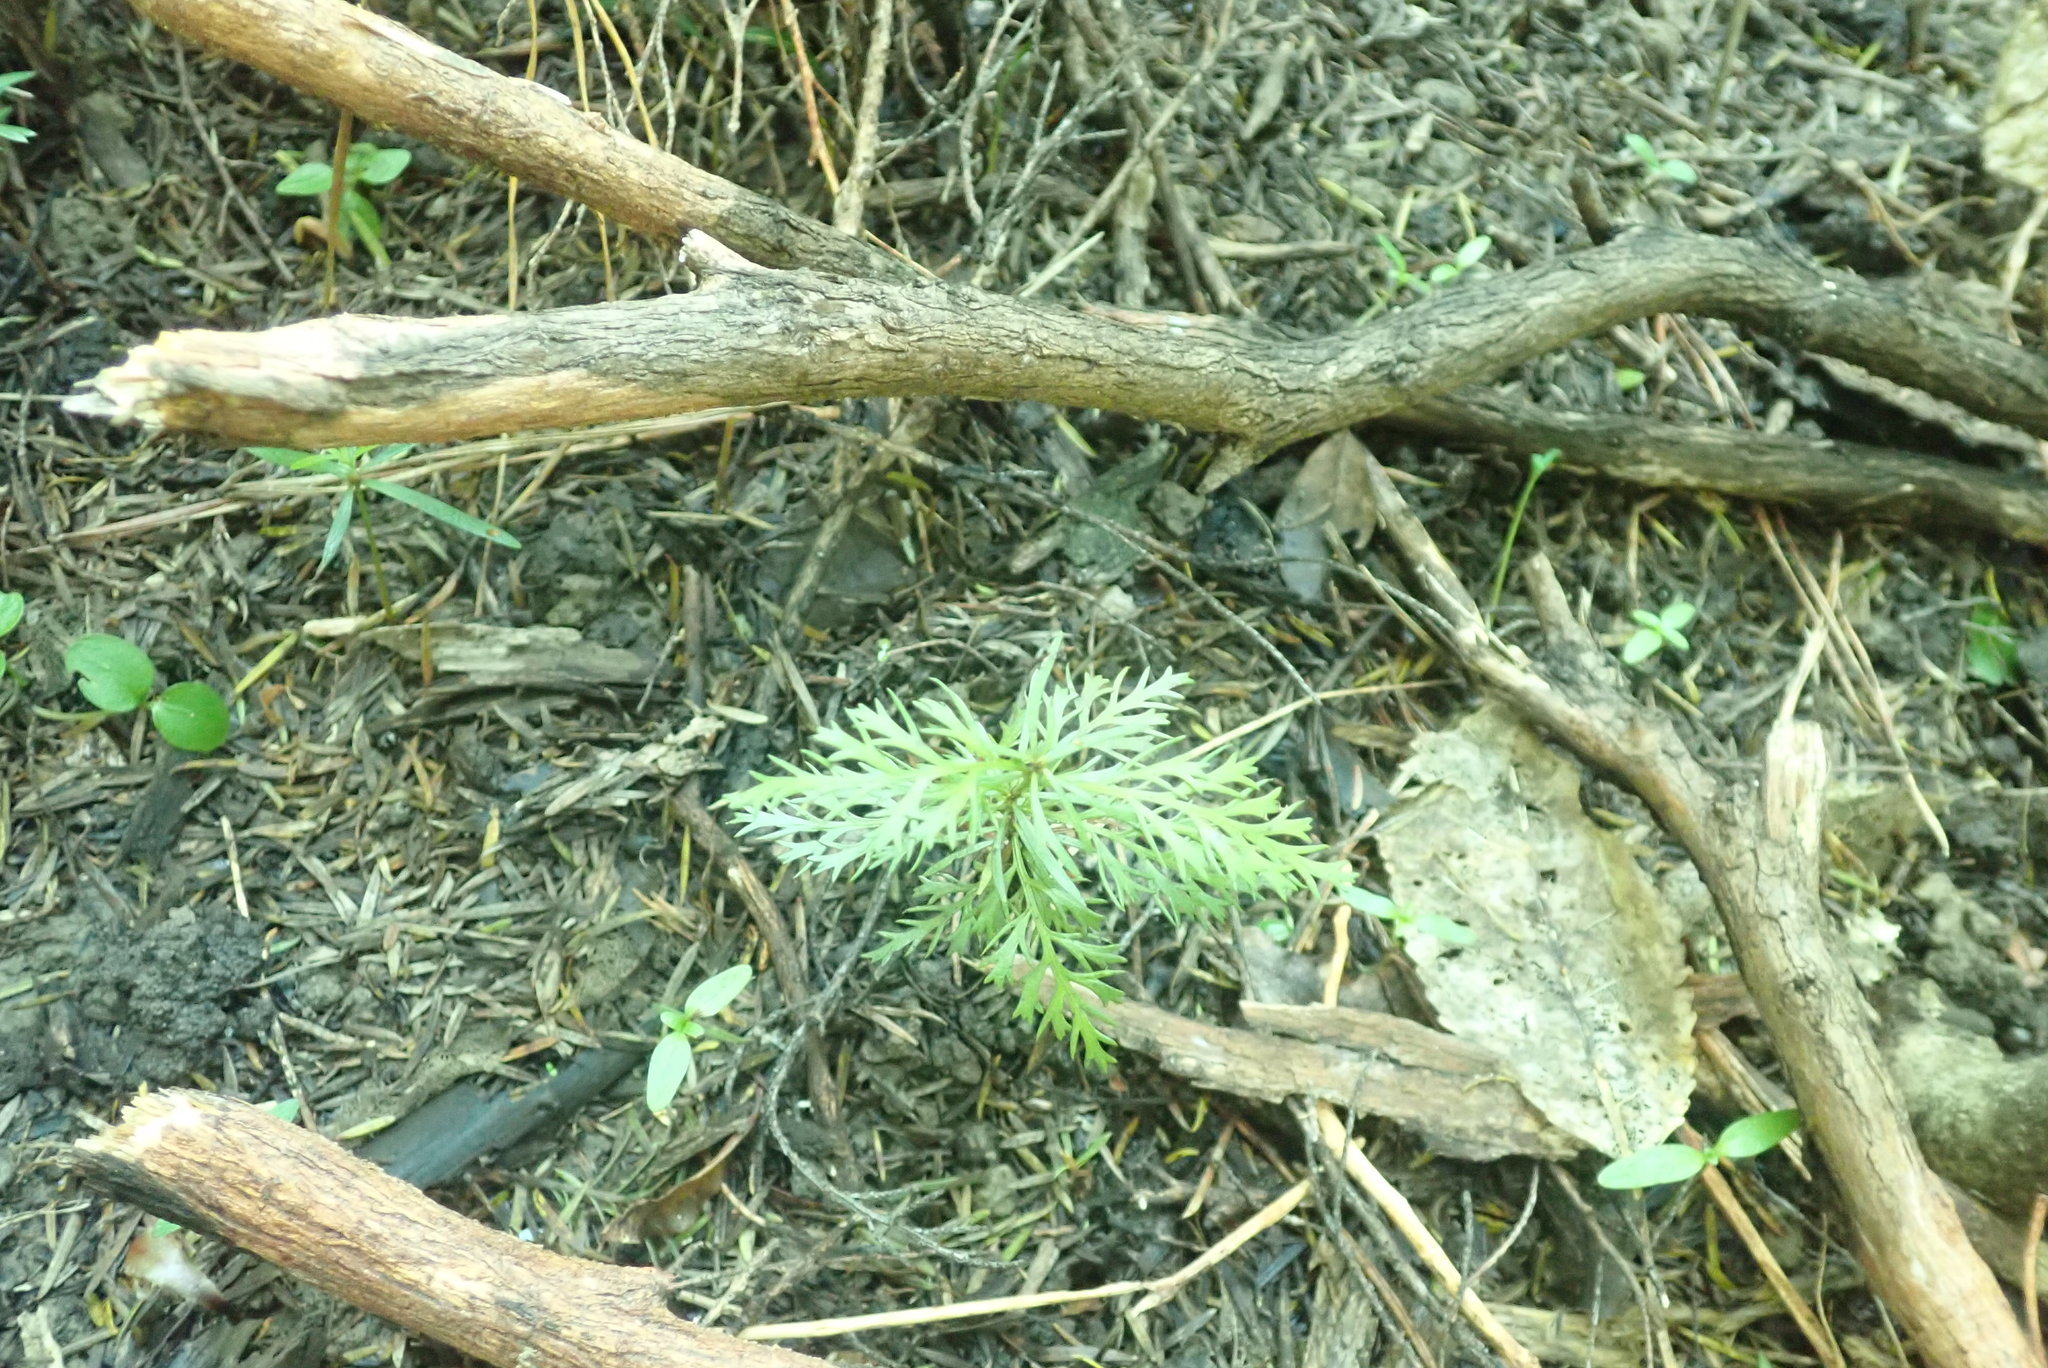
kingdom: Plantae
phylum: Tracheophyta
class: Pinopsida
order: Pinales
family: Phyllocladaceae
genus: Phyllocladus
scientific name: Phyllocladus trichomanoides
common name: Celery pine
